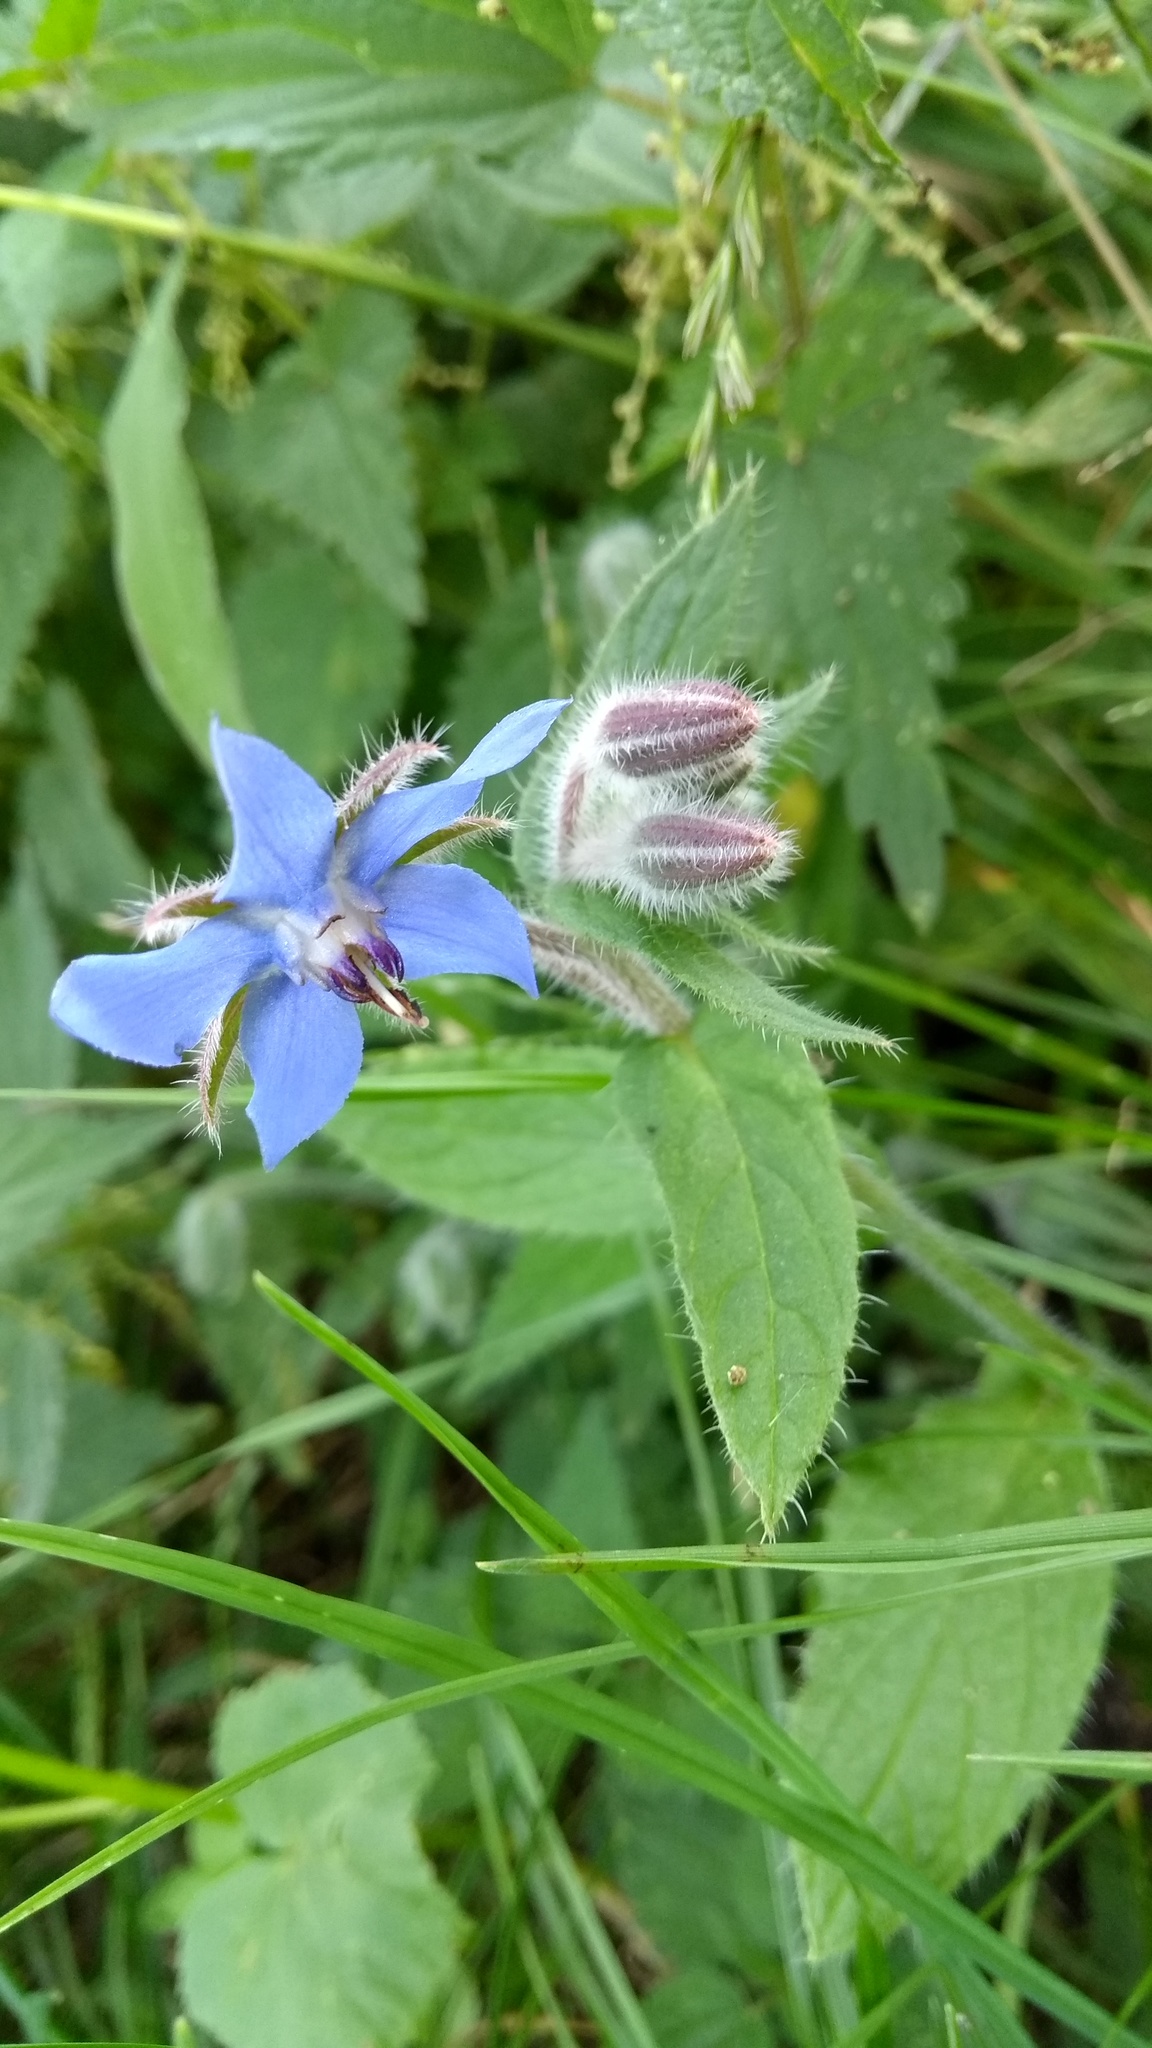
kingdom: Plantae
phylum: Tracheophyta
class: Magnoliopsida
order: Boraginales
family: Boraginaceae
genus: Borago
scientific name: Borago officinalis
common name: Borage
